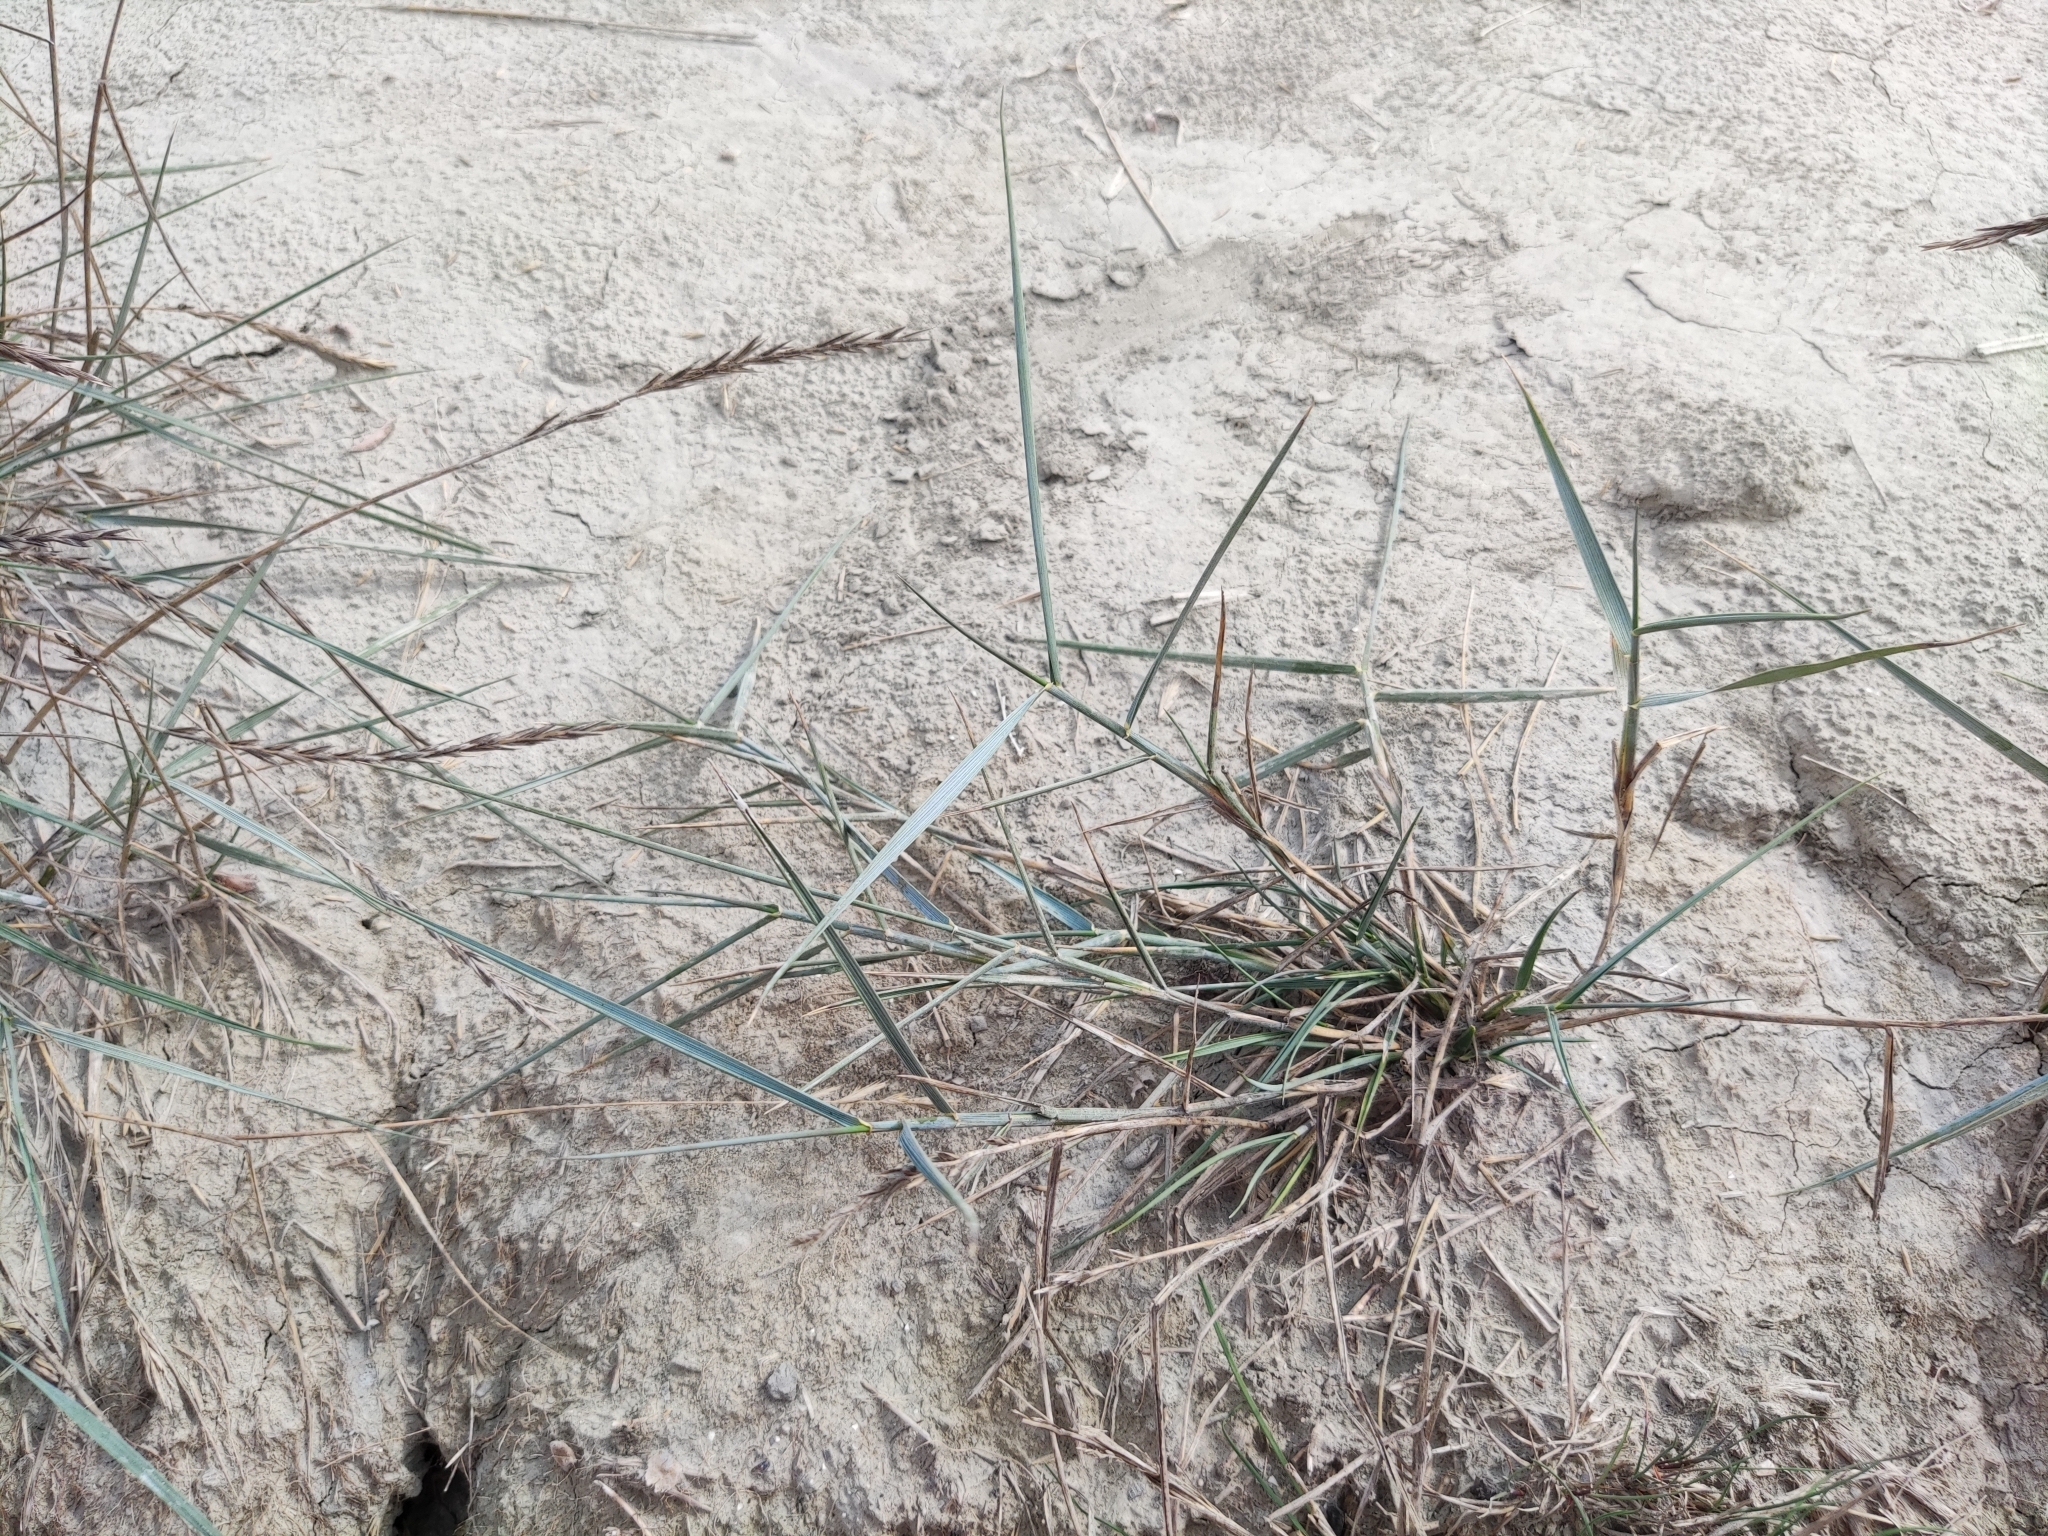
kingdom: Plantae
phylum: Tracheophyta
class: Liliopsida
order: Poales
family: Poaceae
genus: Puccinellia
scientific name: Puccinellia fasciculata
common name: Borrer's saltmarsh-grass
